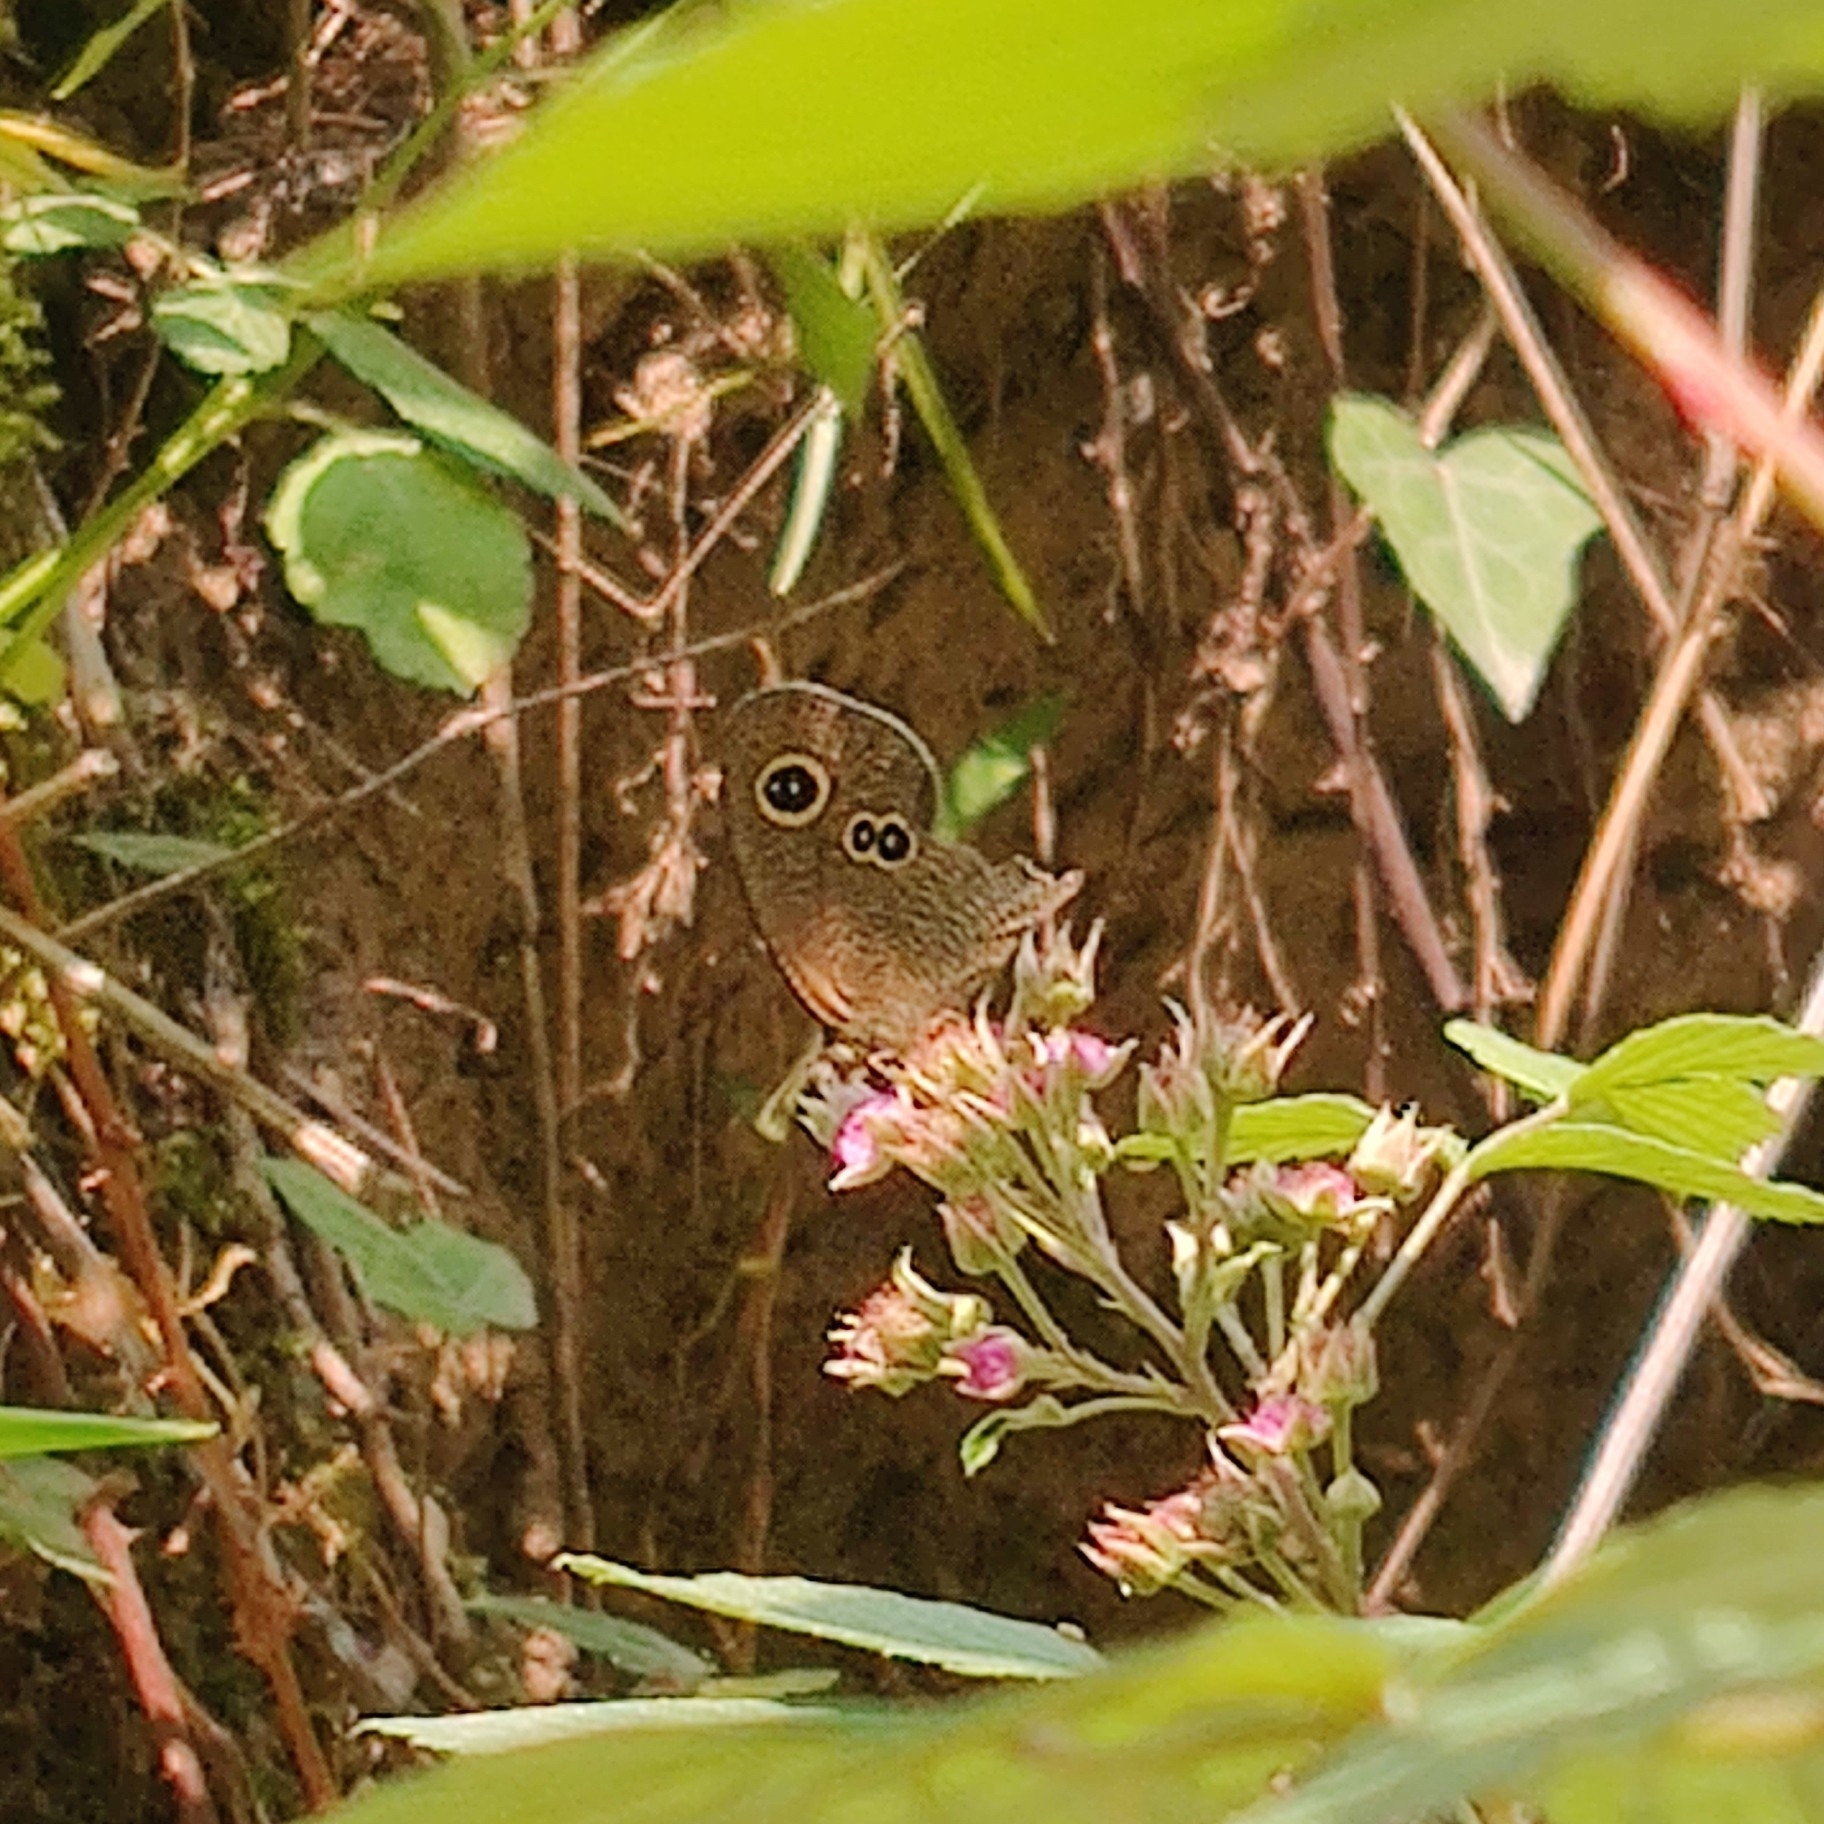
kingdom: Animalia
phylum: Arthropoda
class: Insecta
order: Lepidoptera
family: Nymphalidae
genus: Ypthima
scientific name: Ypthima nikaea
